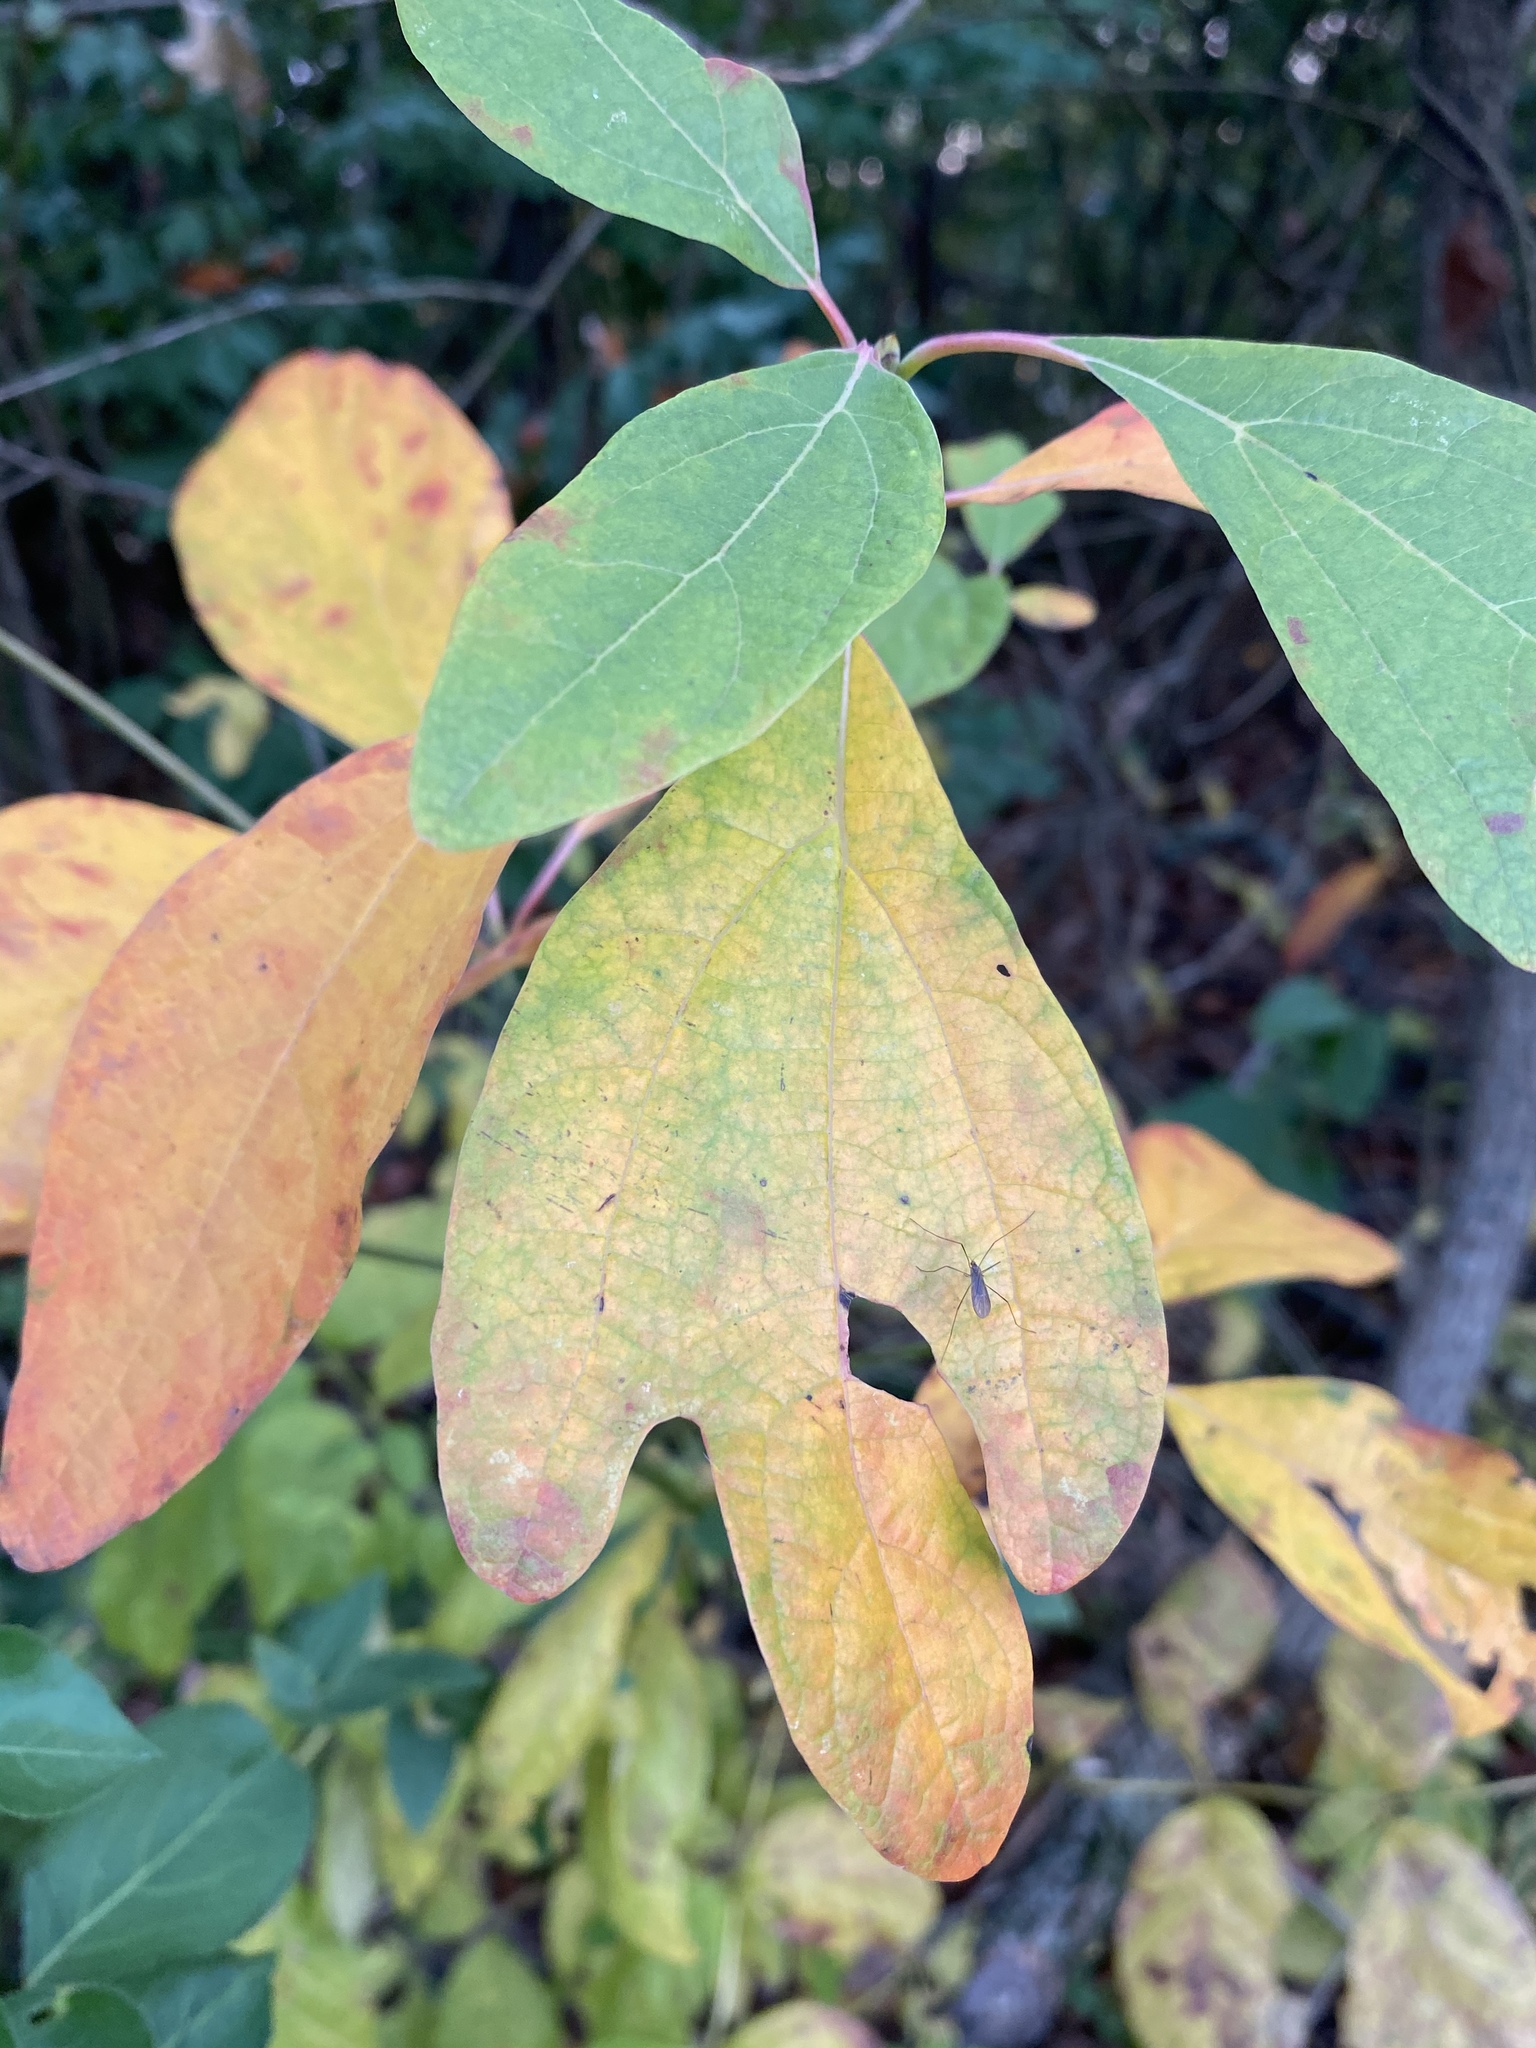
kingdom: Plantae
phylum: Tracheophyta
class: Magnoliopsida
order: Laurales
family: Lauraceae
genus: Sassafras
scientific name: Sassafras albidum
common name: Sassafras
